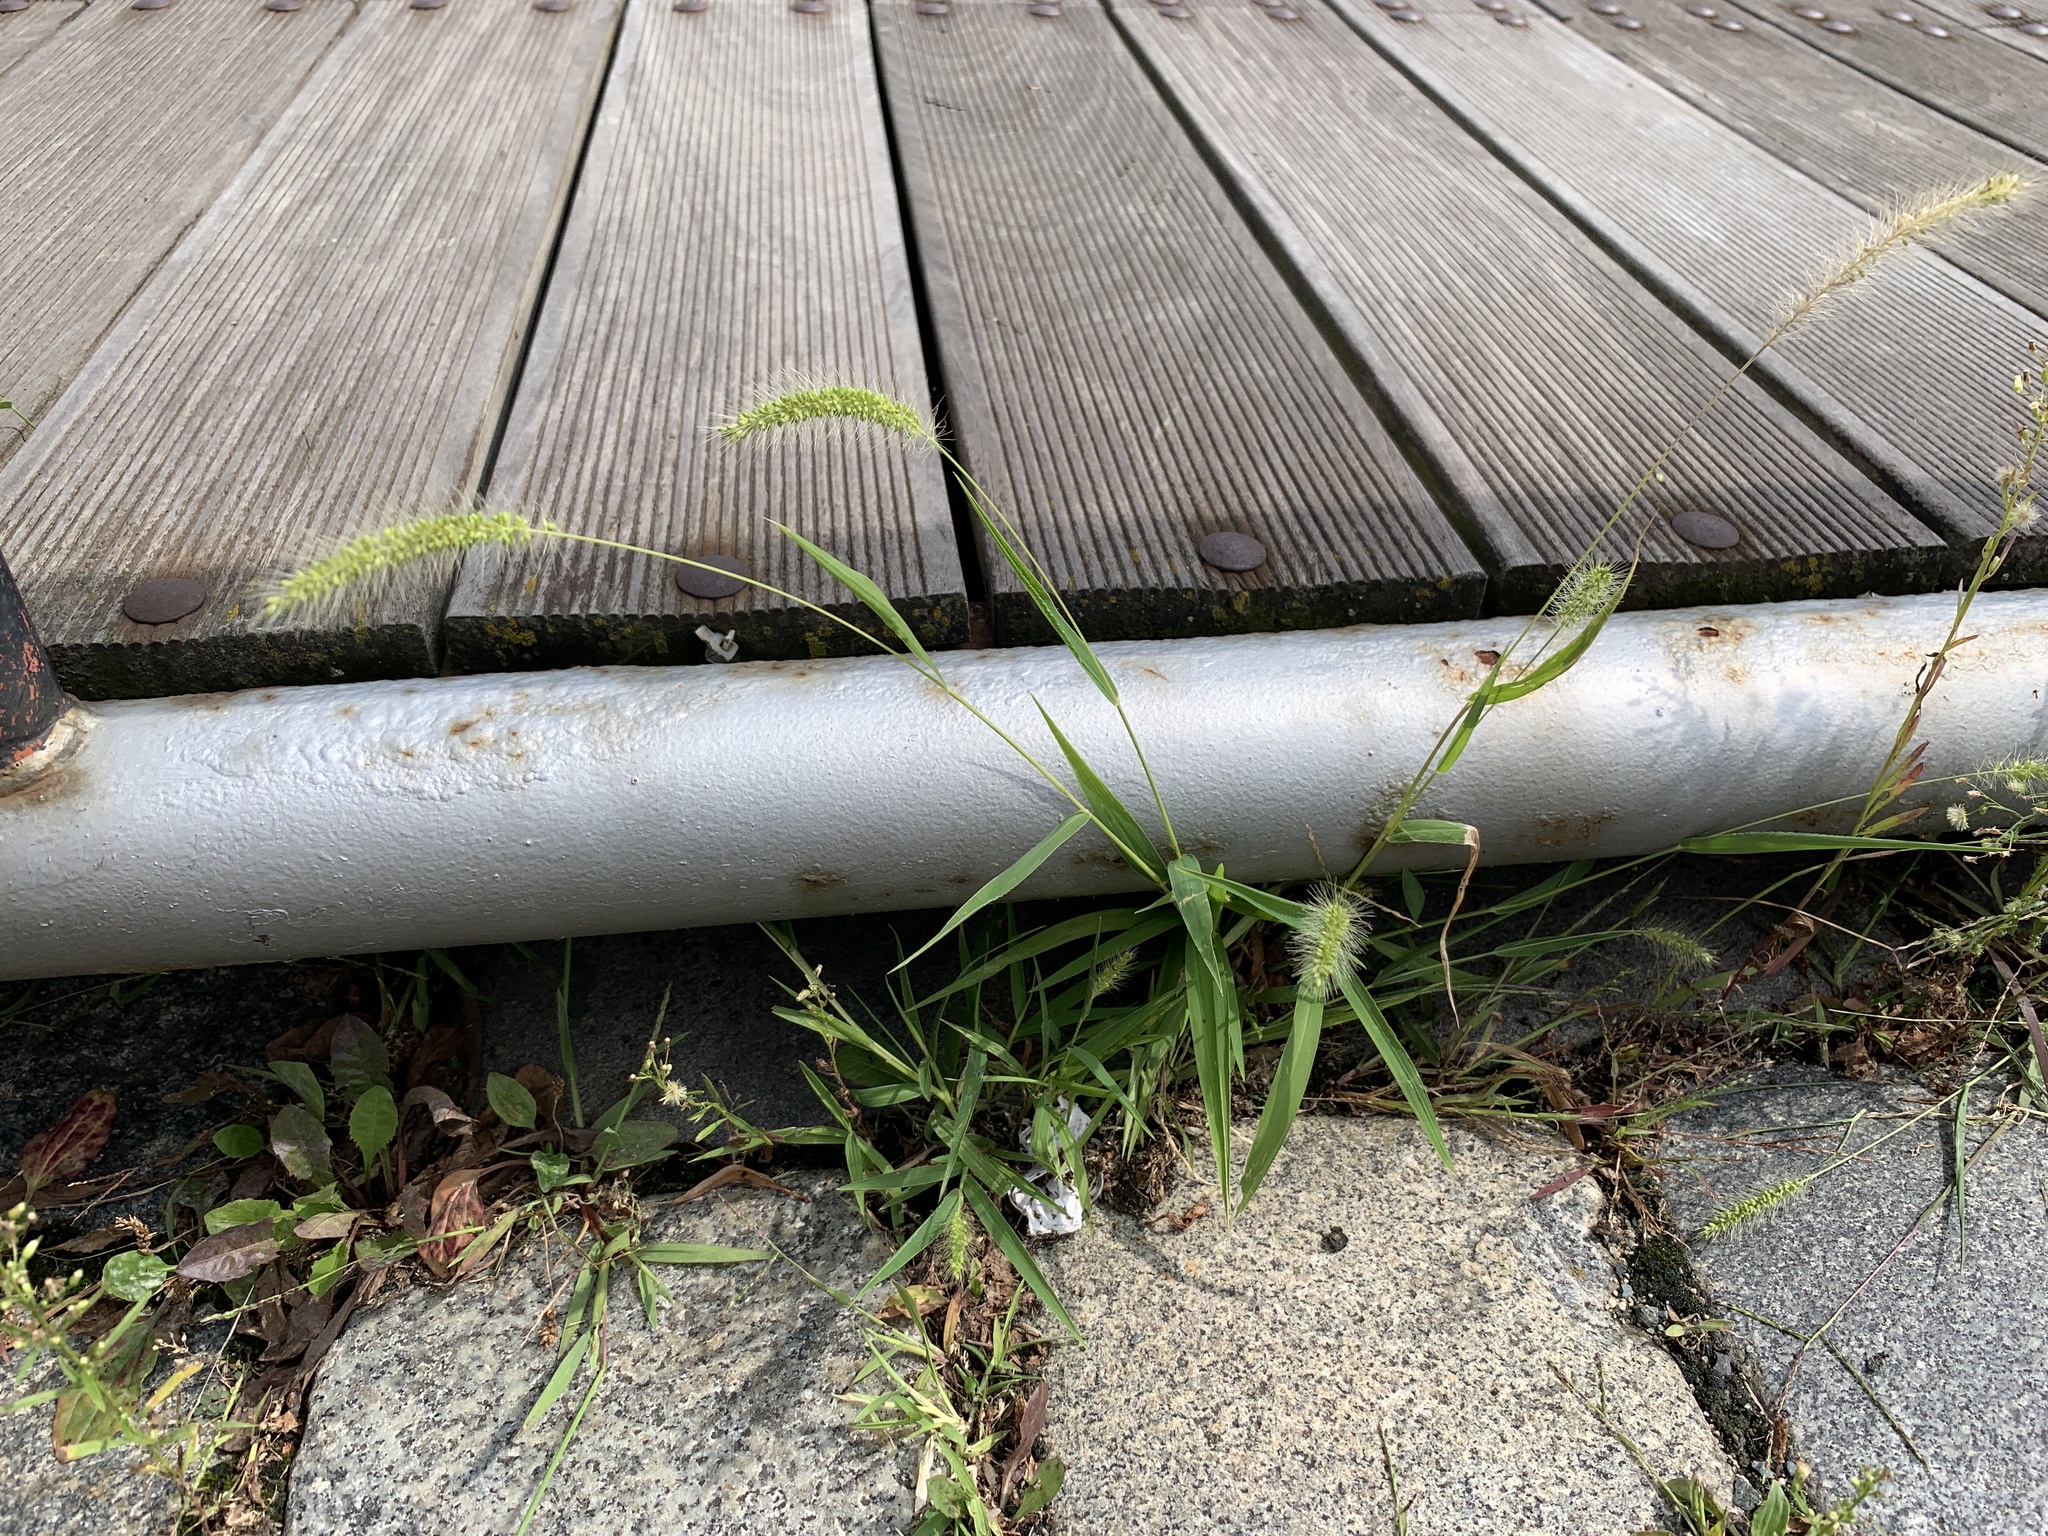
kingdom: Plantae
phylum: Tracheophyta
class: Liliopsida
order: Poales
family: Poaceae
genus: Setaria
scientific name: Setaria viridis
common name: Green bristlegrass
